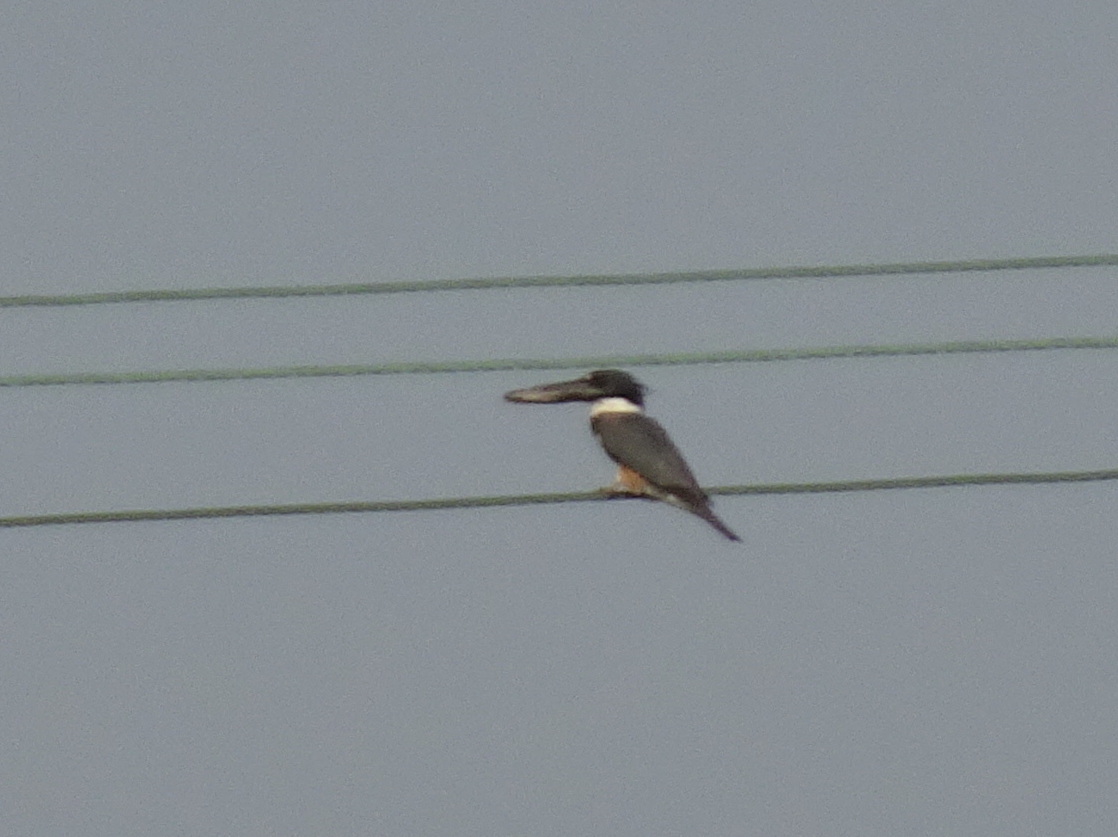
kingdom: Animalia
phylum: Chordata
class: Aves
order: Coraciiformes
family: Alcedinidae
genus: Megaceryle
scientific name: Megaceryle alcyon
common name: Belted kingfisher
